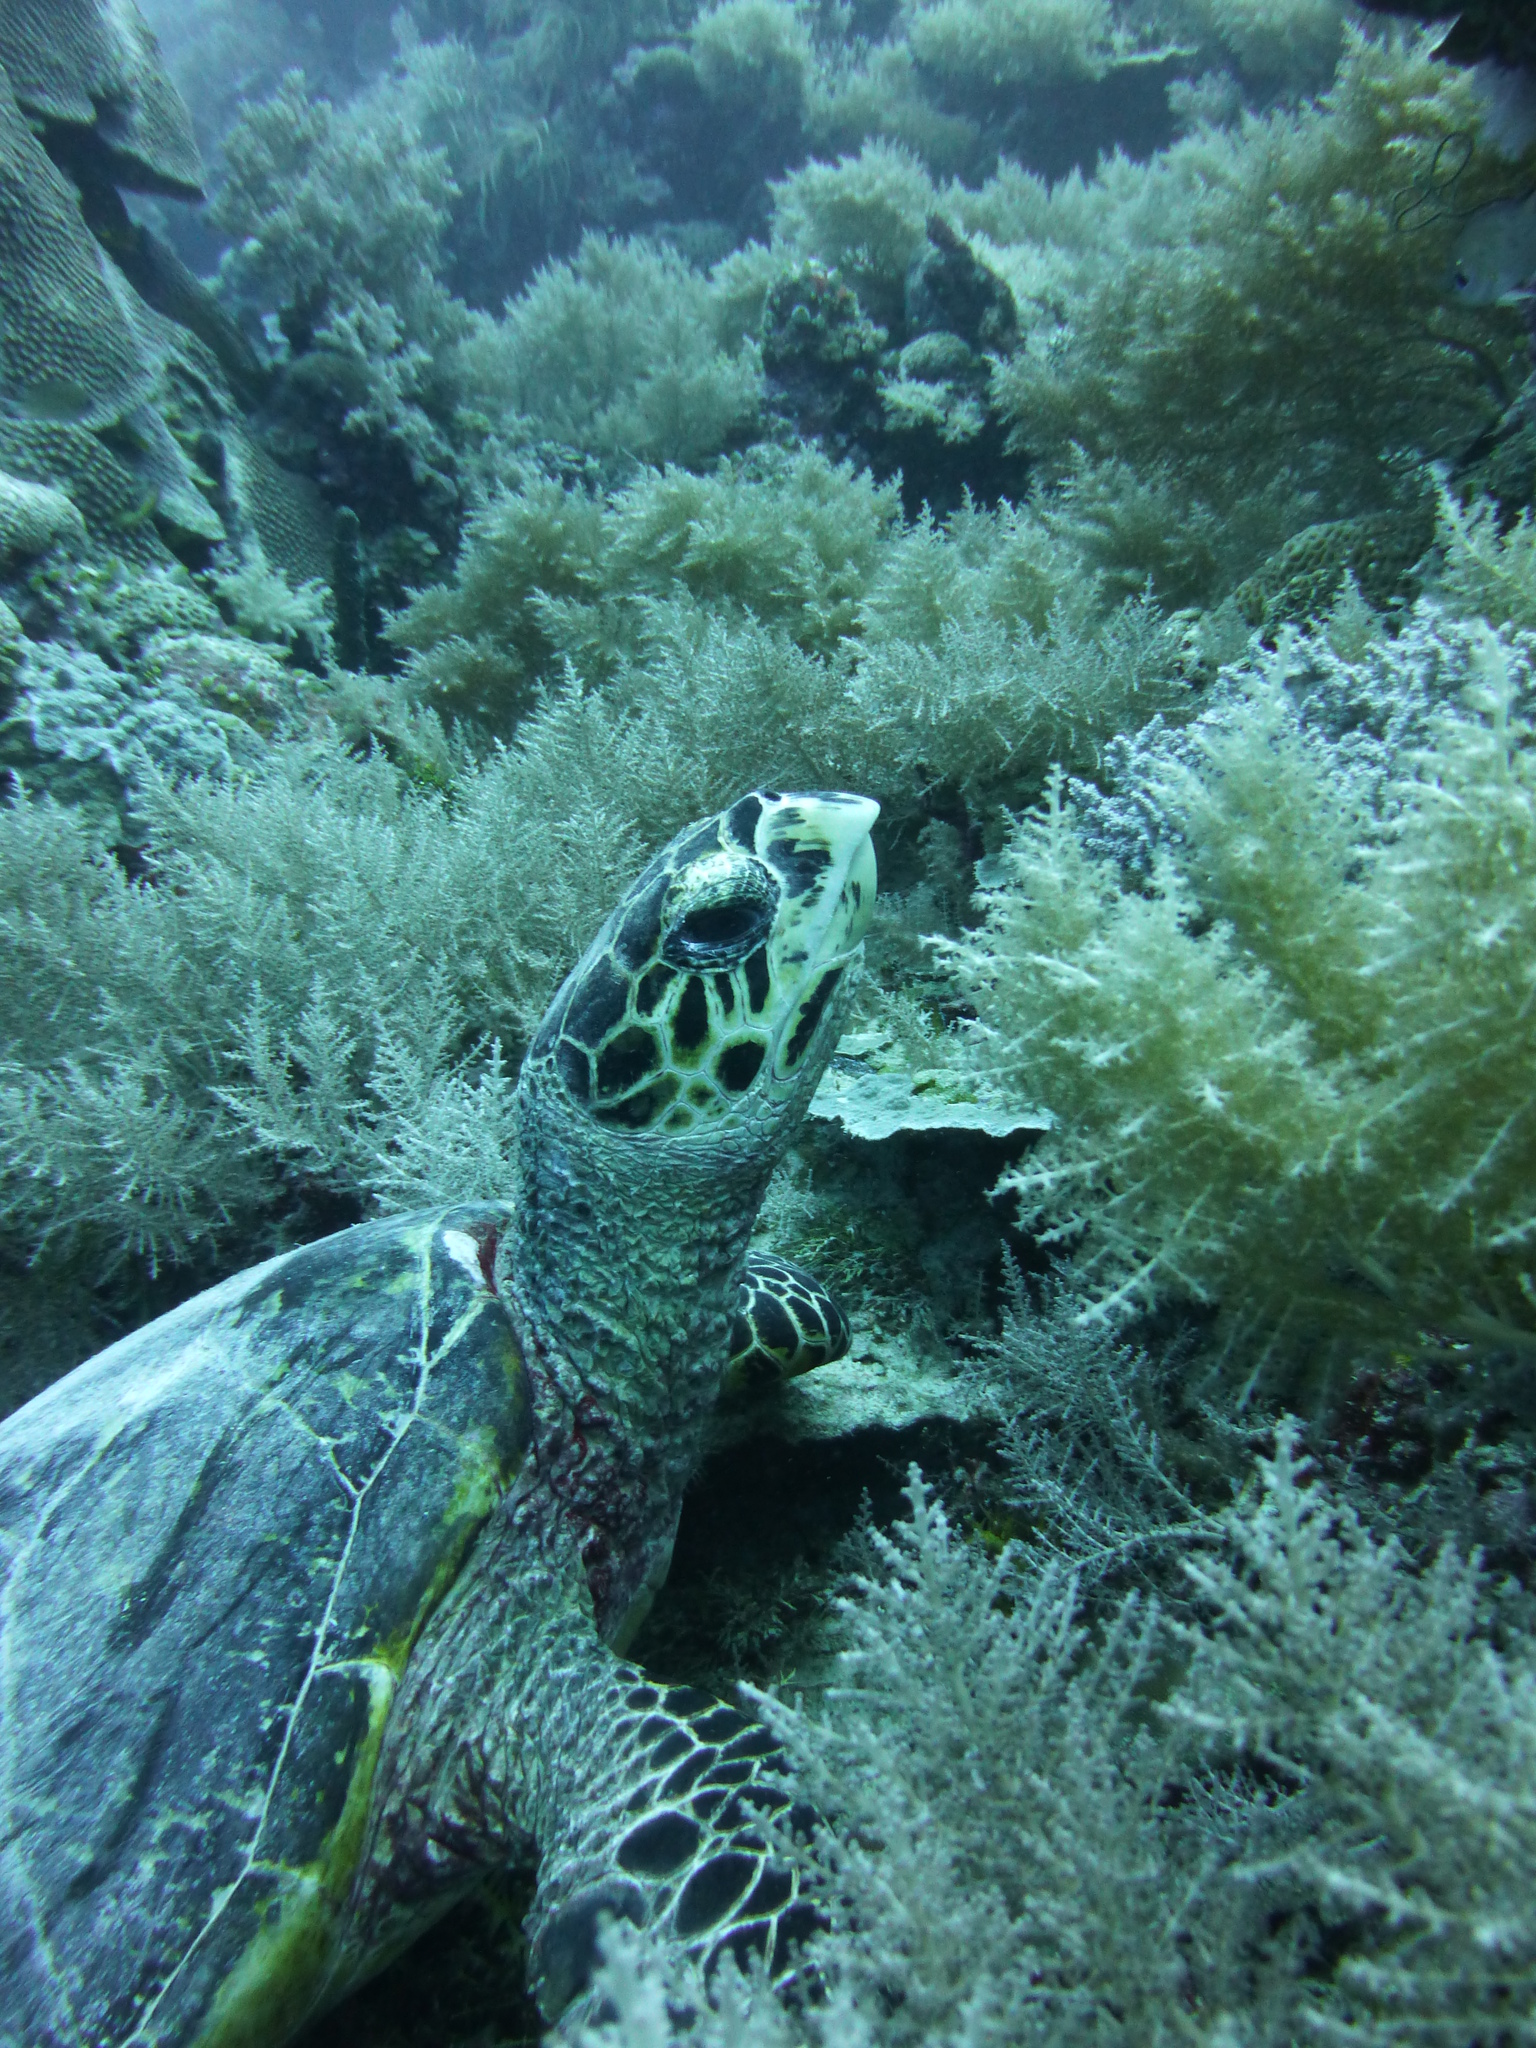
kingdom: Animalia
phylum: Chordata
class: Testudines
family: Cheloniidae
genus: Eretmochelys
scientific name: Eretmochelys imbricata
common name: Hawksbill turtle
